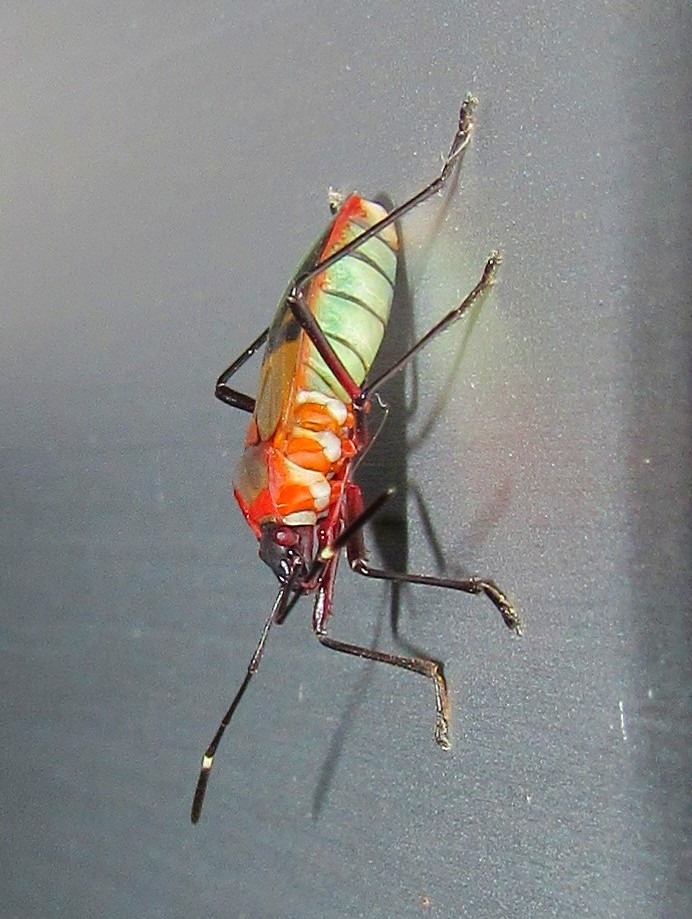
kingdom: Animalia
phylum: Arthropoda
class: Insecta
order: Hemiptera
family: Pyrrhocoridae
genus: Dysdercus
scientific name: Dysdercus ruficollis
